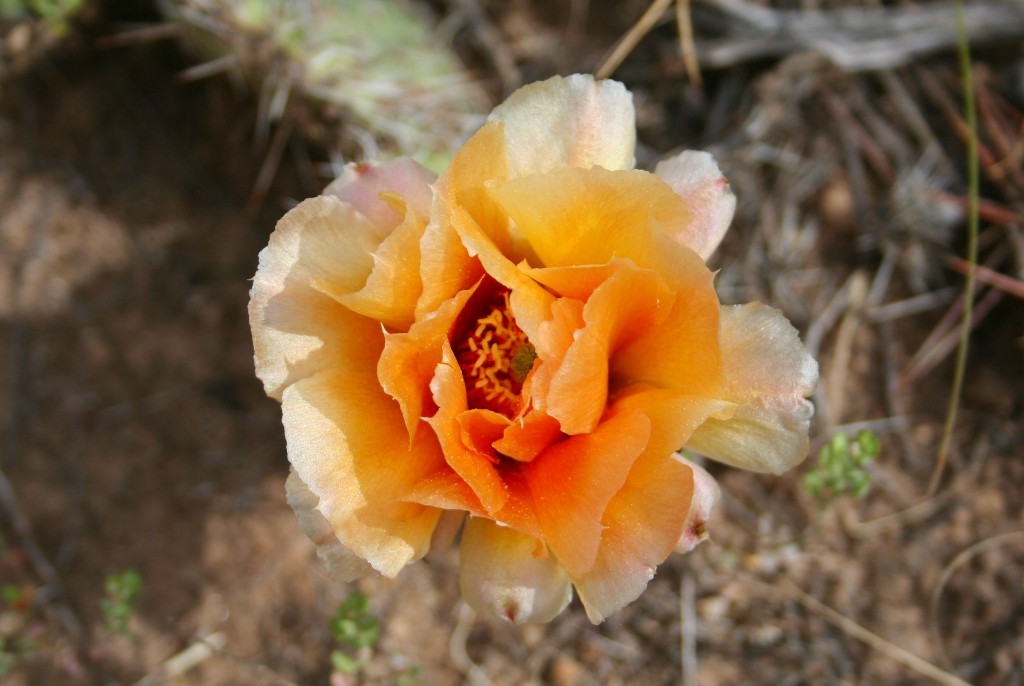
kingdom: Plantae
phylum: Tracheophyta
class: Magnoliopsida
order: Caryophyllales
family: Cactaceae
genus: Opuntia
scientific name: Opuntia polyacantha
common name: Plains prickly-pear
